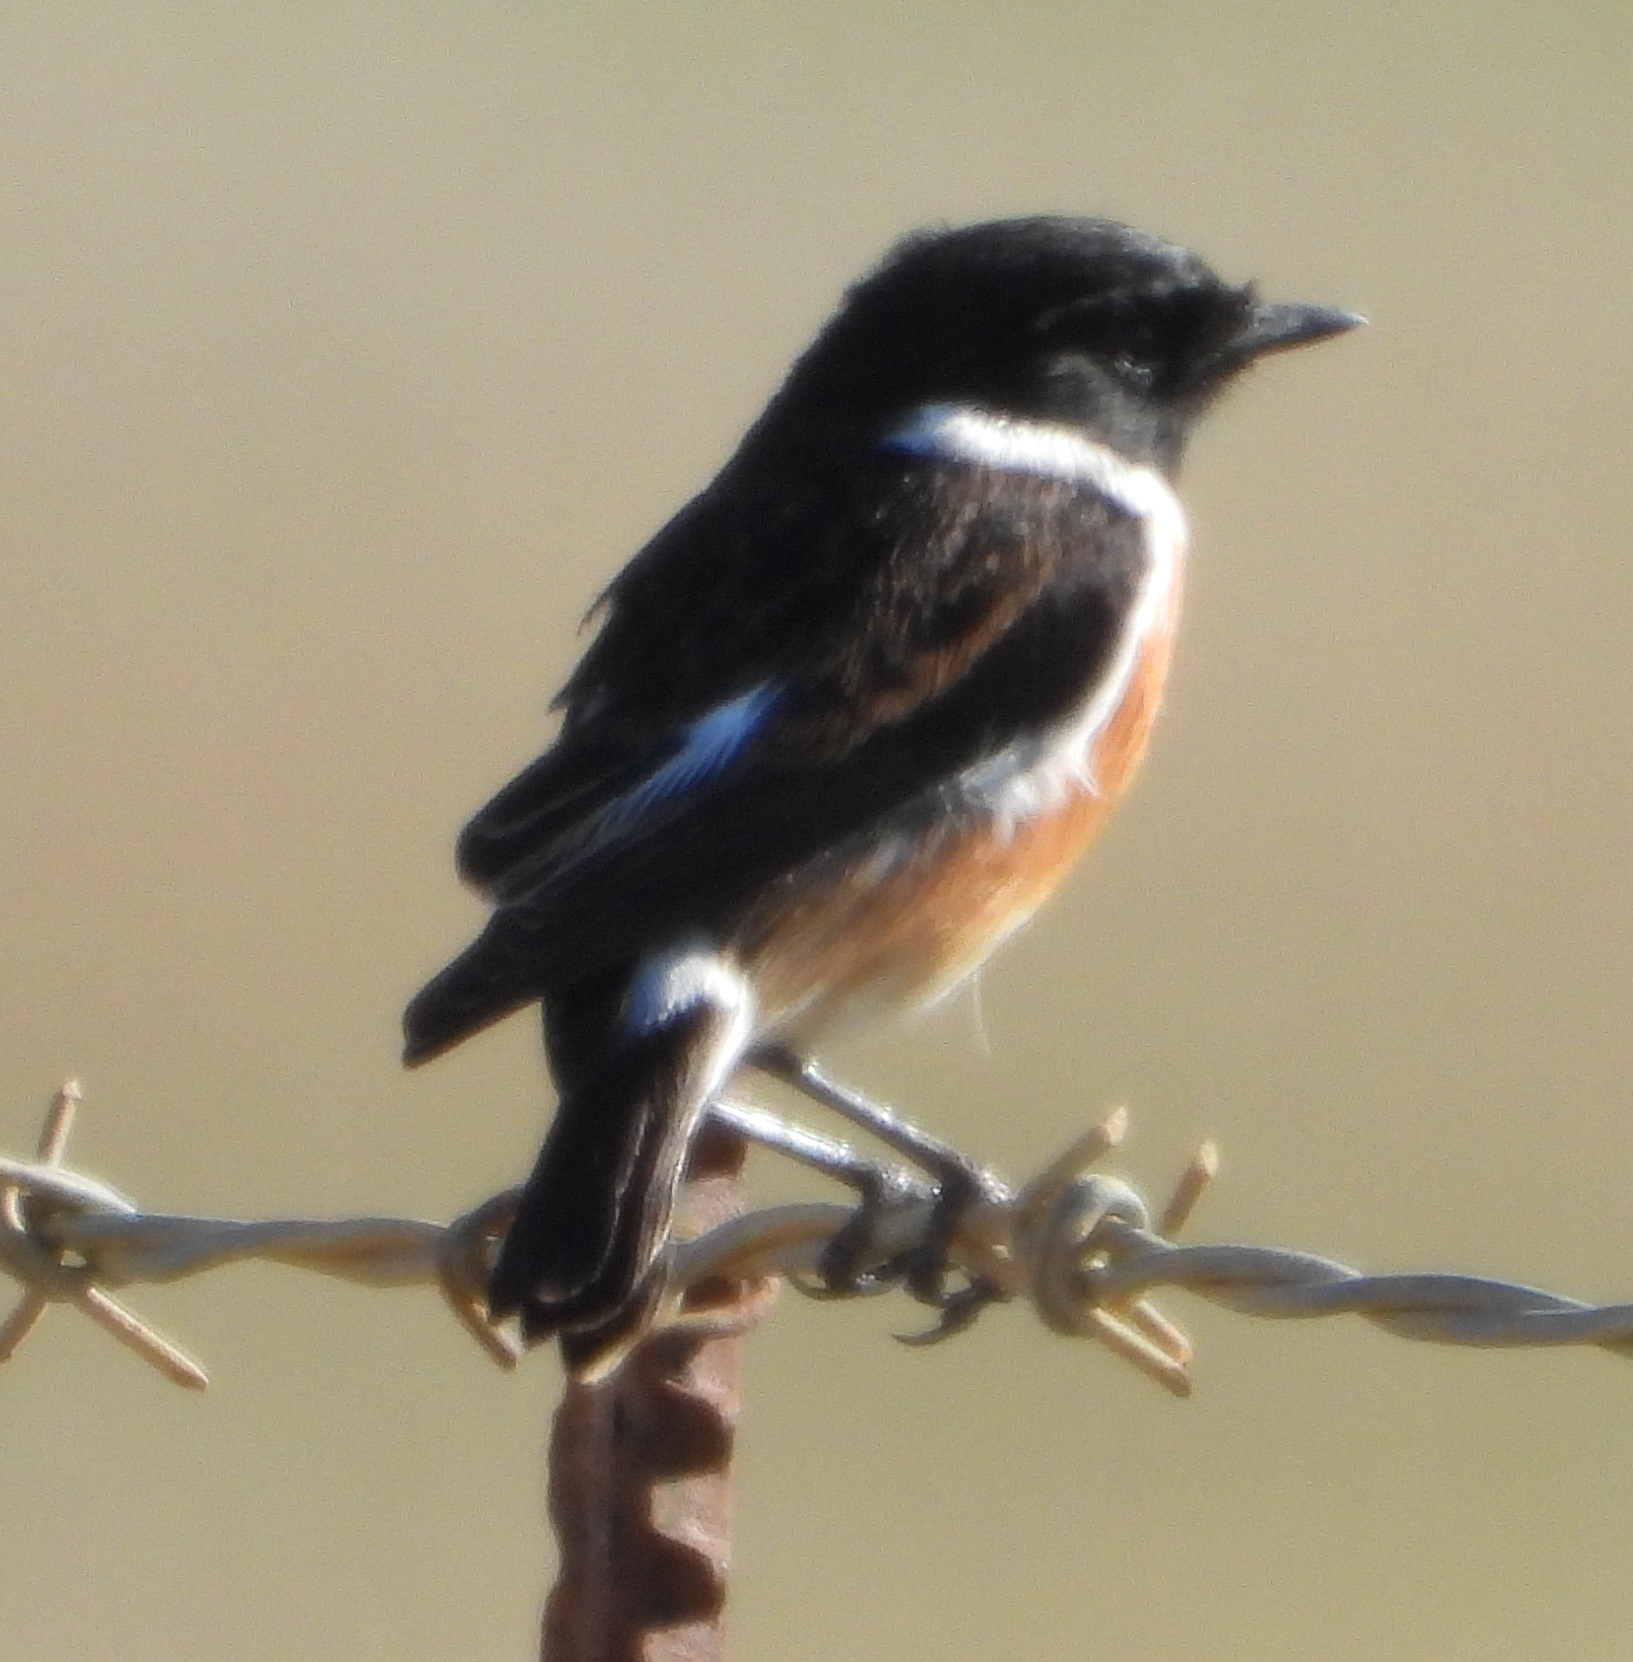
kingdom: Animalia
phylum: Chordata
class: Aves
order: Passeriformes
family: Muscicapidae
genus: Saxicola
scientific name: Saxicola torquatus
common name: African stonechat
